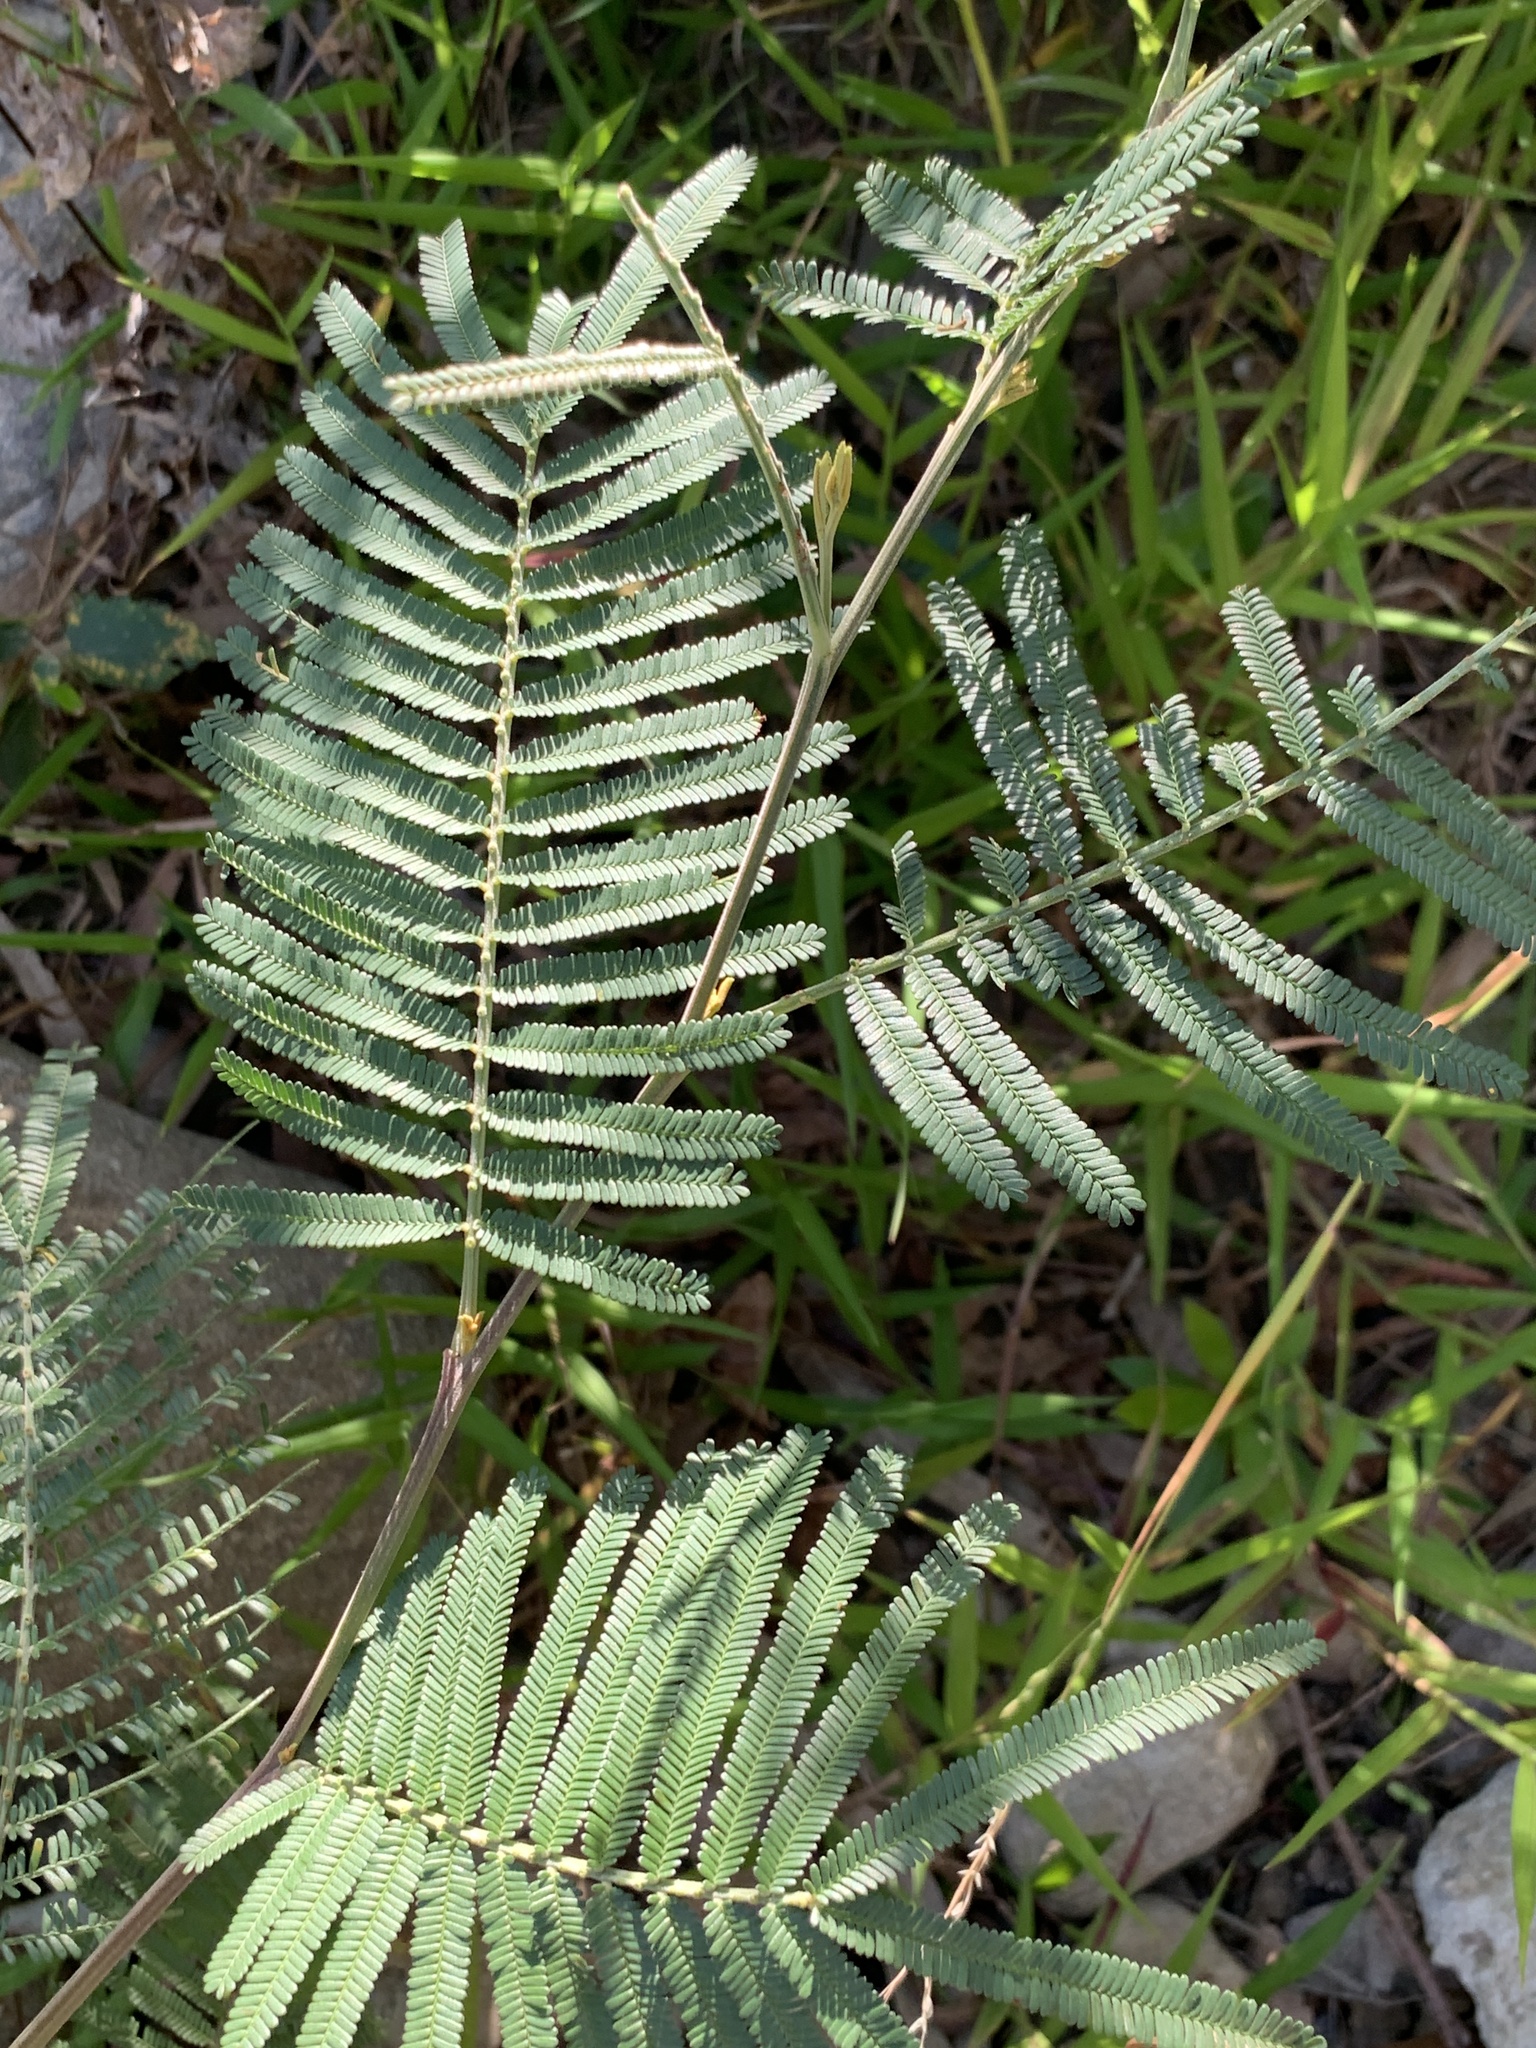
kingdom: Plantae
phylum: Tracheophyta
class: Magnoliopsida
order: Fabales
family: Fabaceae
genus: Acacia
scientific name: Acacia mearnsii
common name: Black wattle
